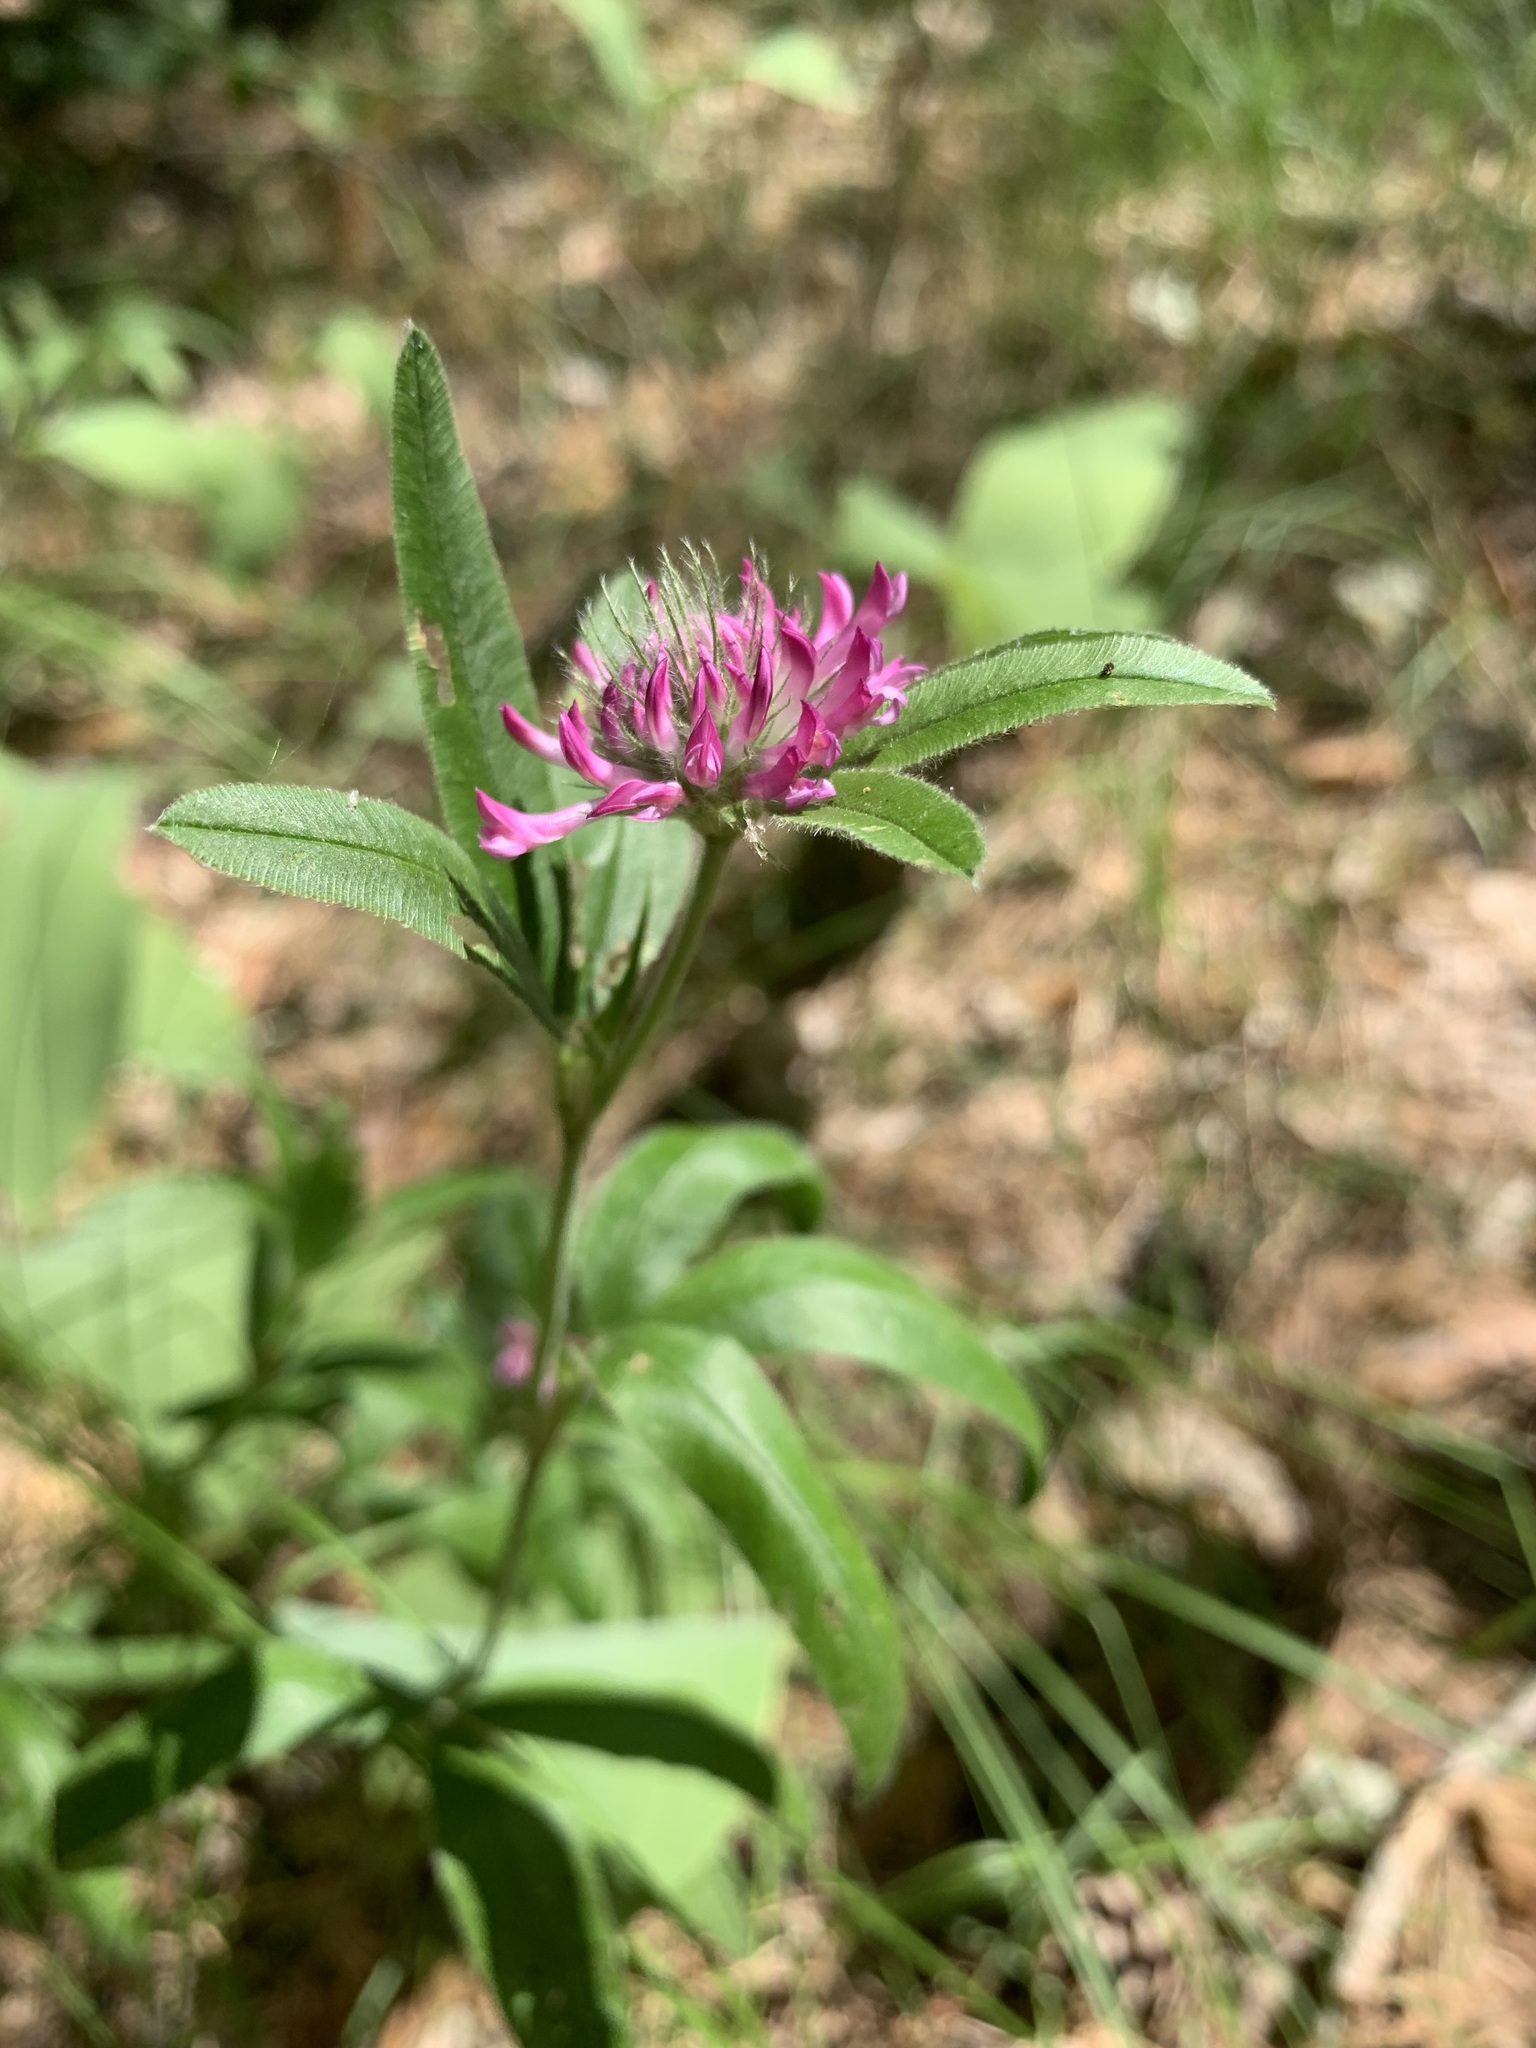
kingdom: Plantae
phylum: Tracheophyta
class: Magnoliopsida
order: Fabales
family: Fabaceae
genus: Trifolium
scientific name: Trifolium alpestre
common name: Owl-head clover
